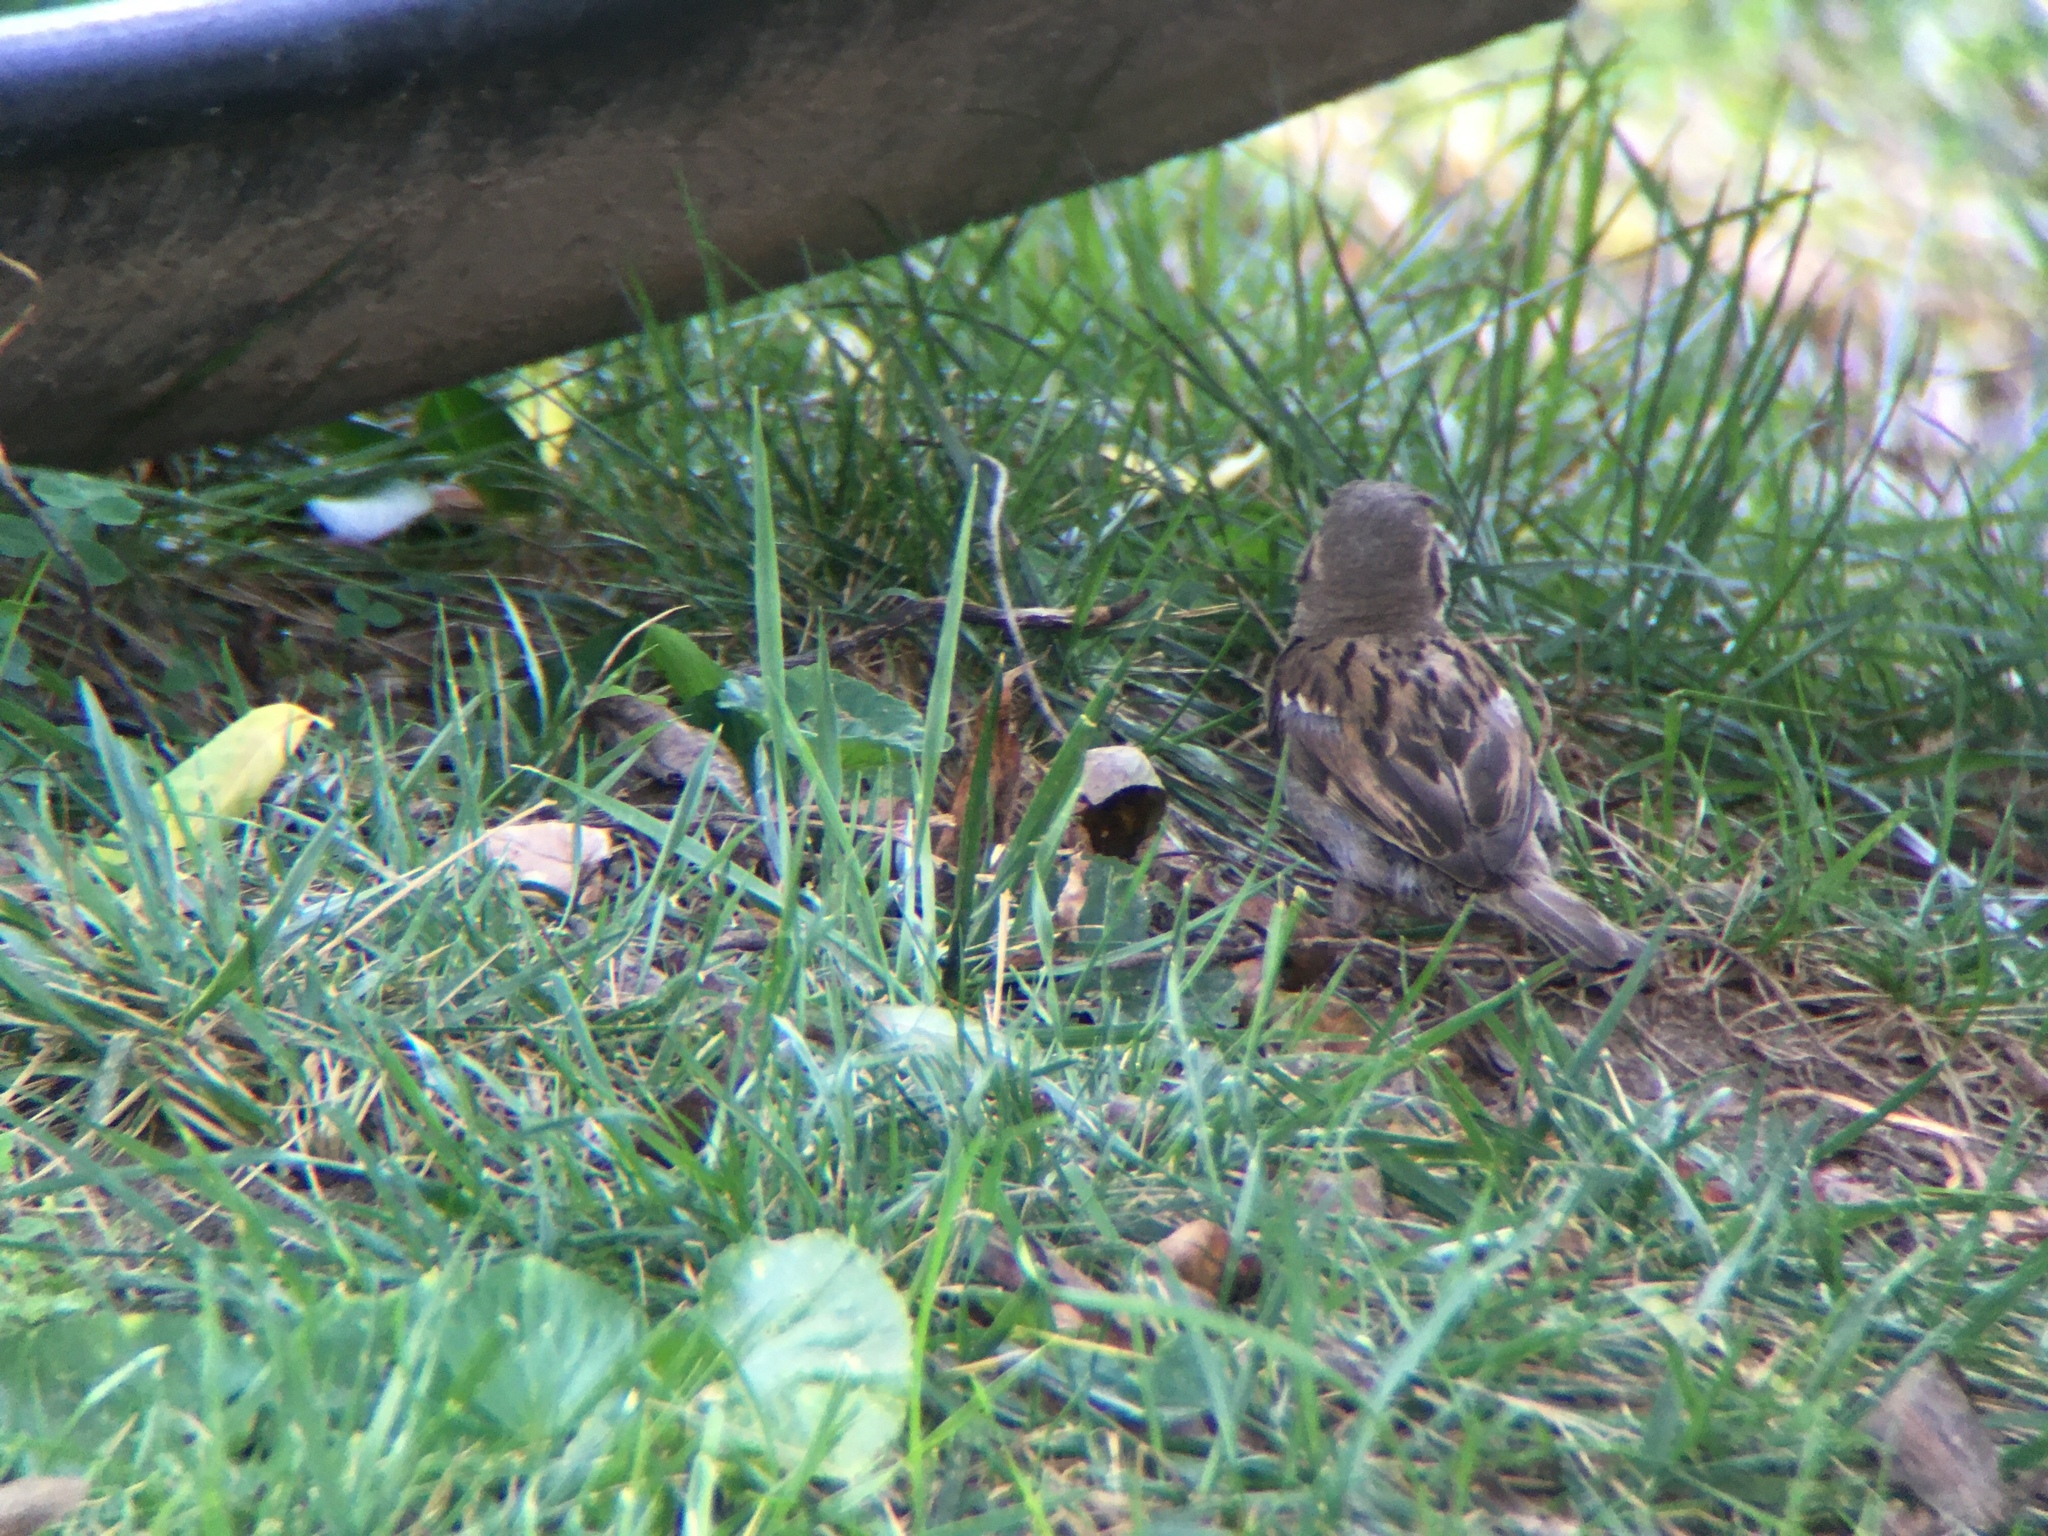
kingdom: Animalia
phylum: Chordata
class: Aves
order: Passeriformes
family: Passeridae
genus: Passer
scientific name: Passer domesticus
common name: House sparrow
